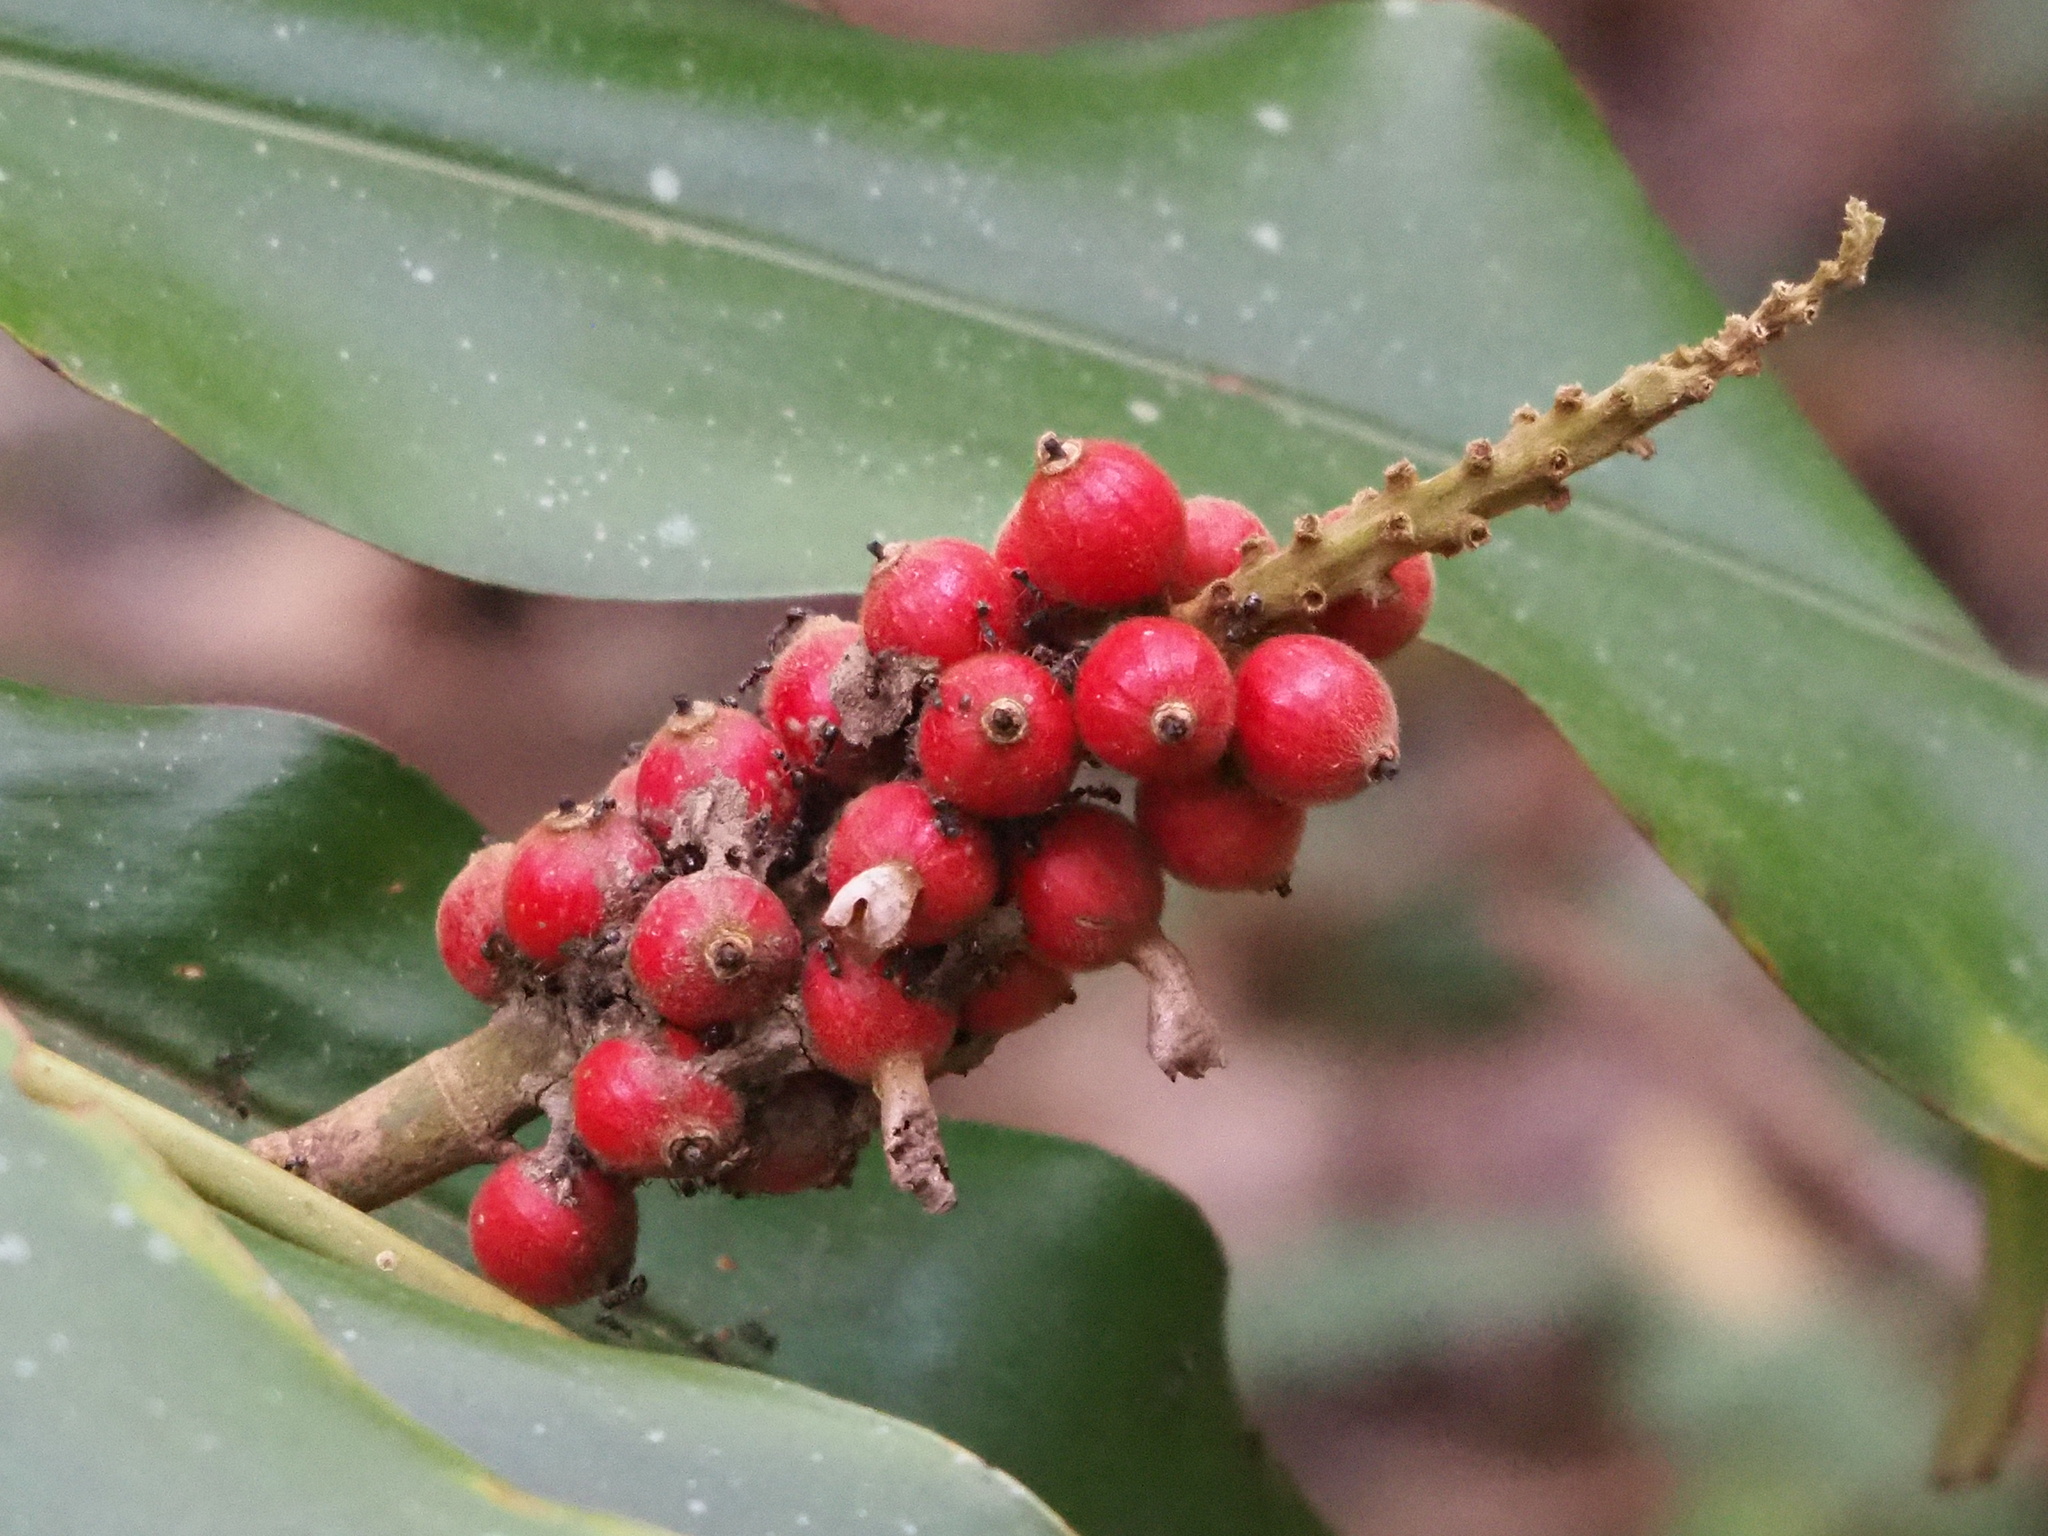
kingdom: Plantae
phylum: Tracheophyta
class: Liliopsida
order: Zingiberales
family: Zingiberaceae
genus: Alpinia
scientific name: Alpinia kawakamii
